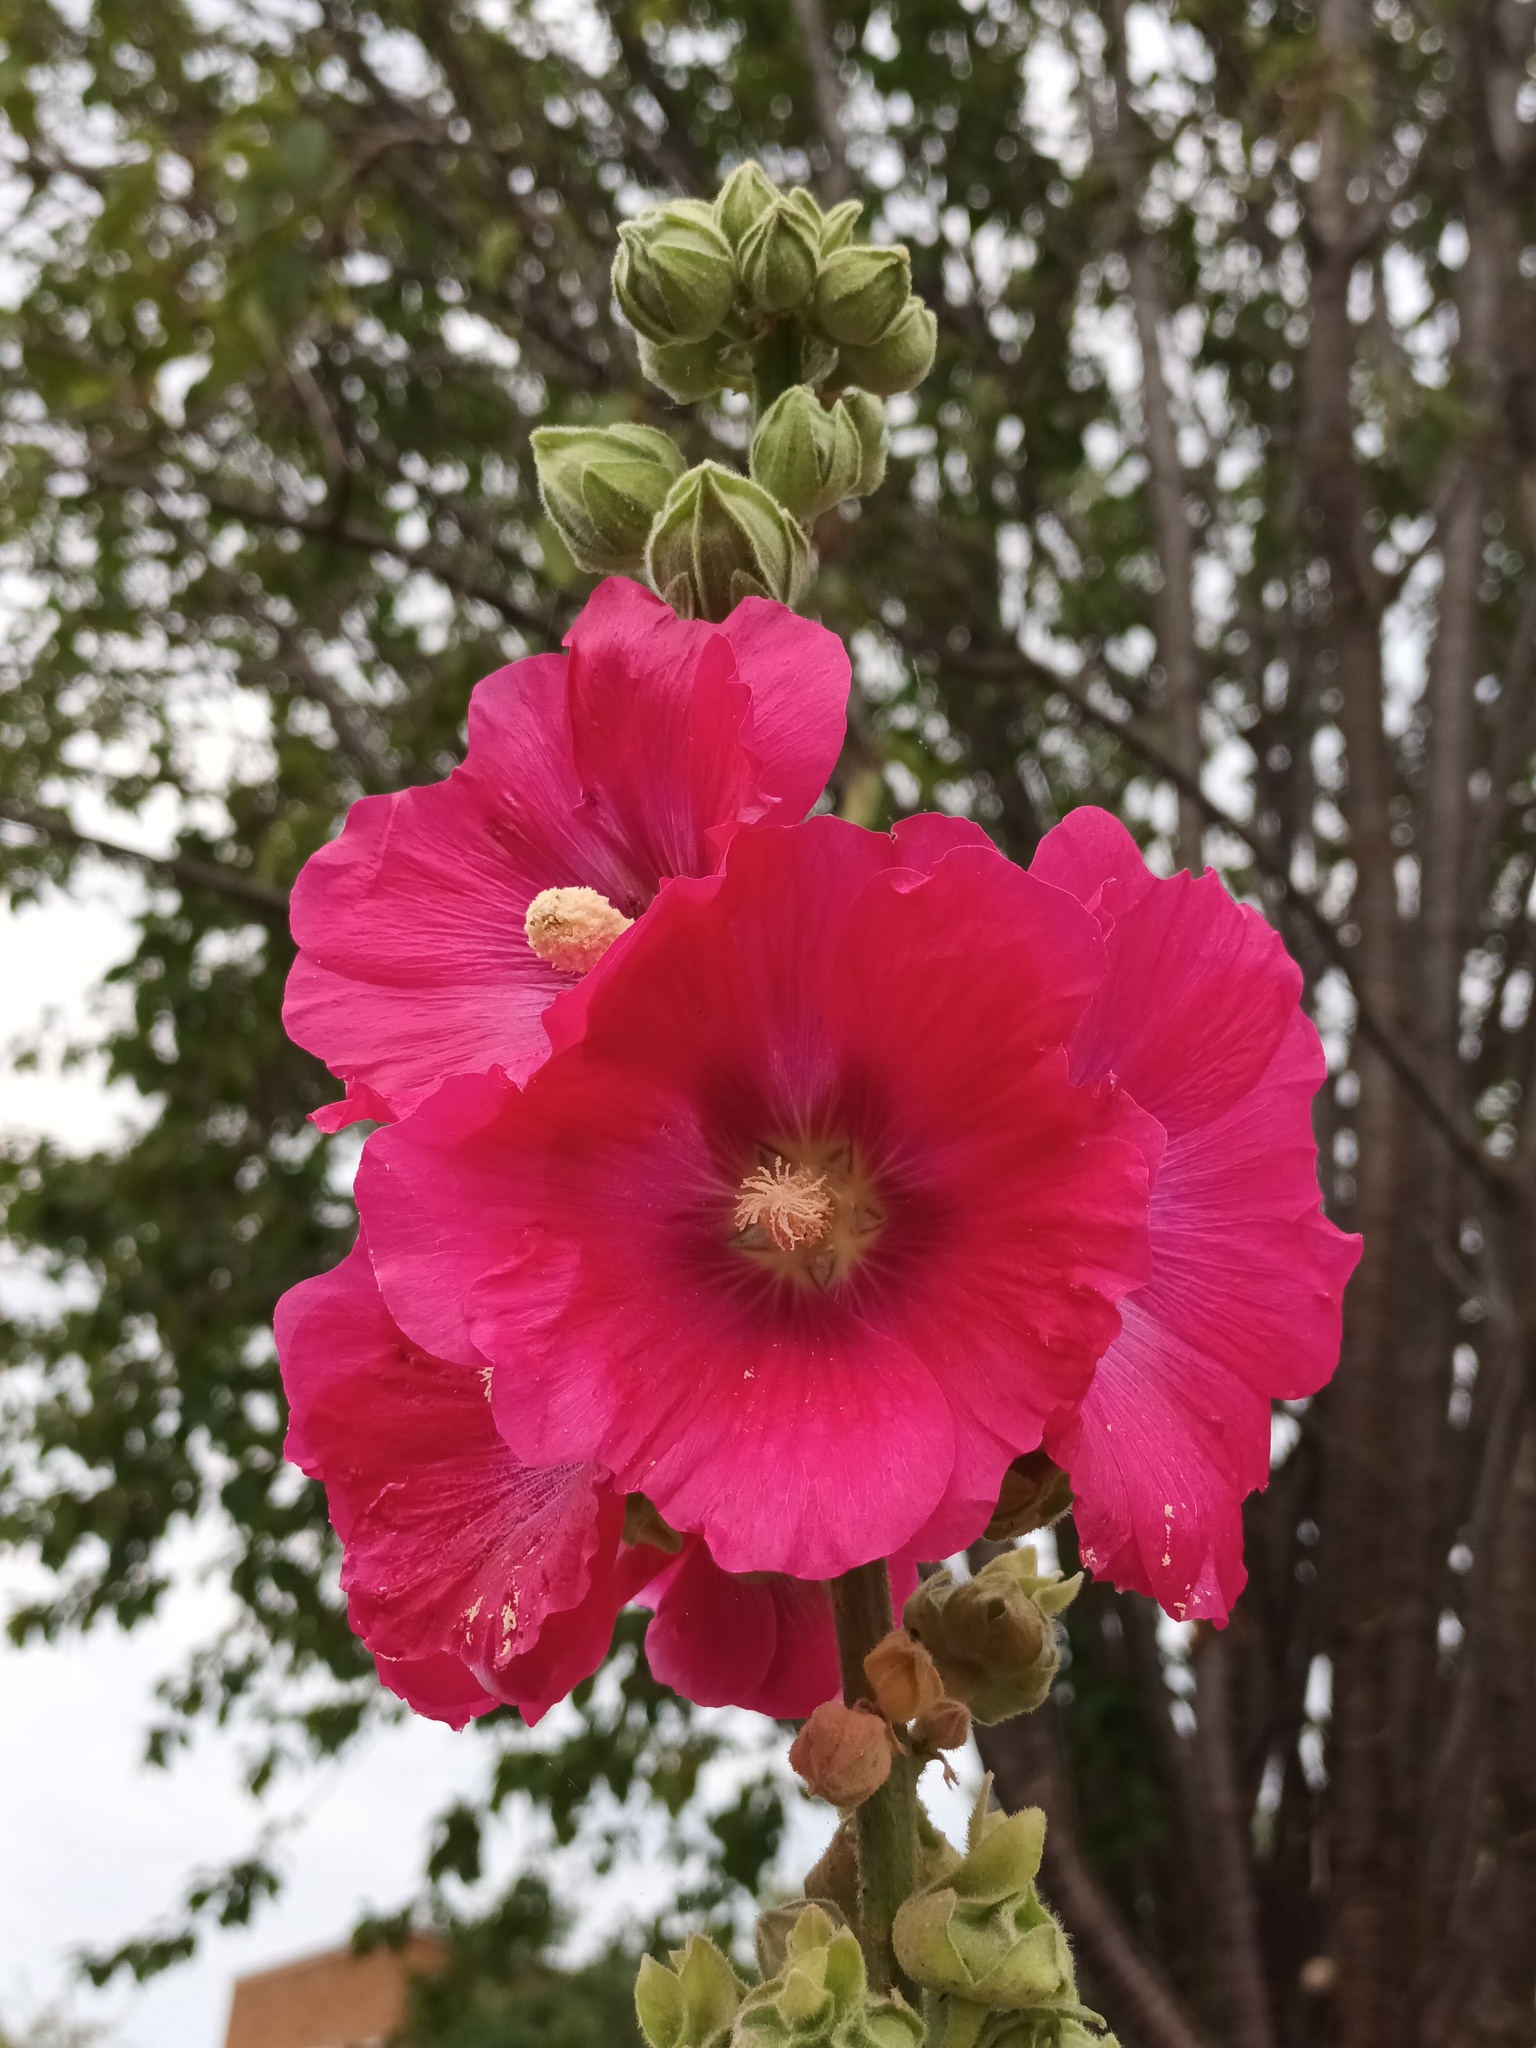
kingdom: Plantae
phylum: Tracheophyta
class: Magnoliopsida
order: Malvales
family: Malvaceae
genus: Alcea
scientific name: Alcea rosea
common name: Hollyhock
